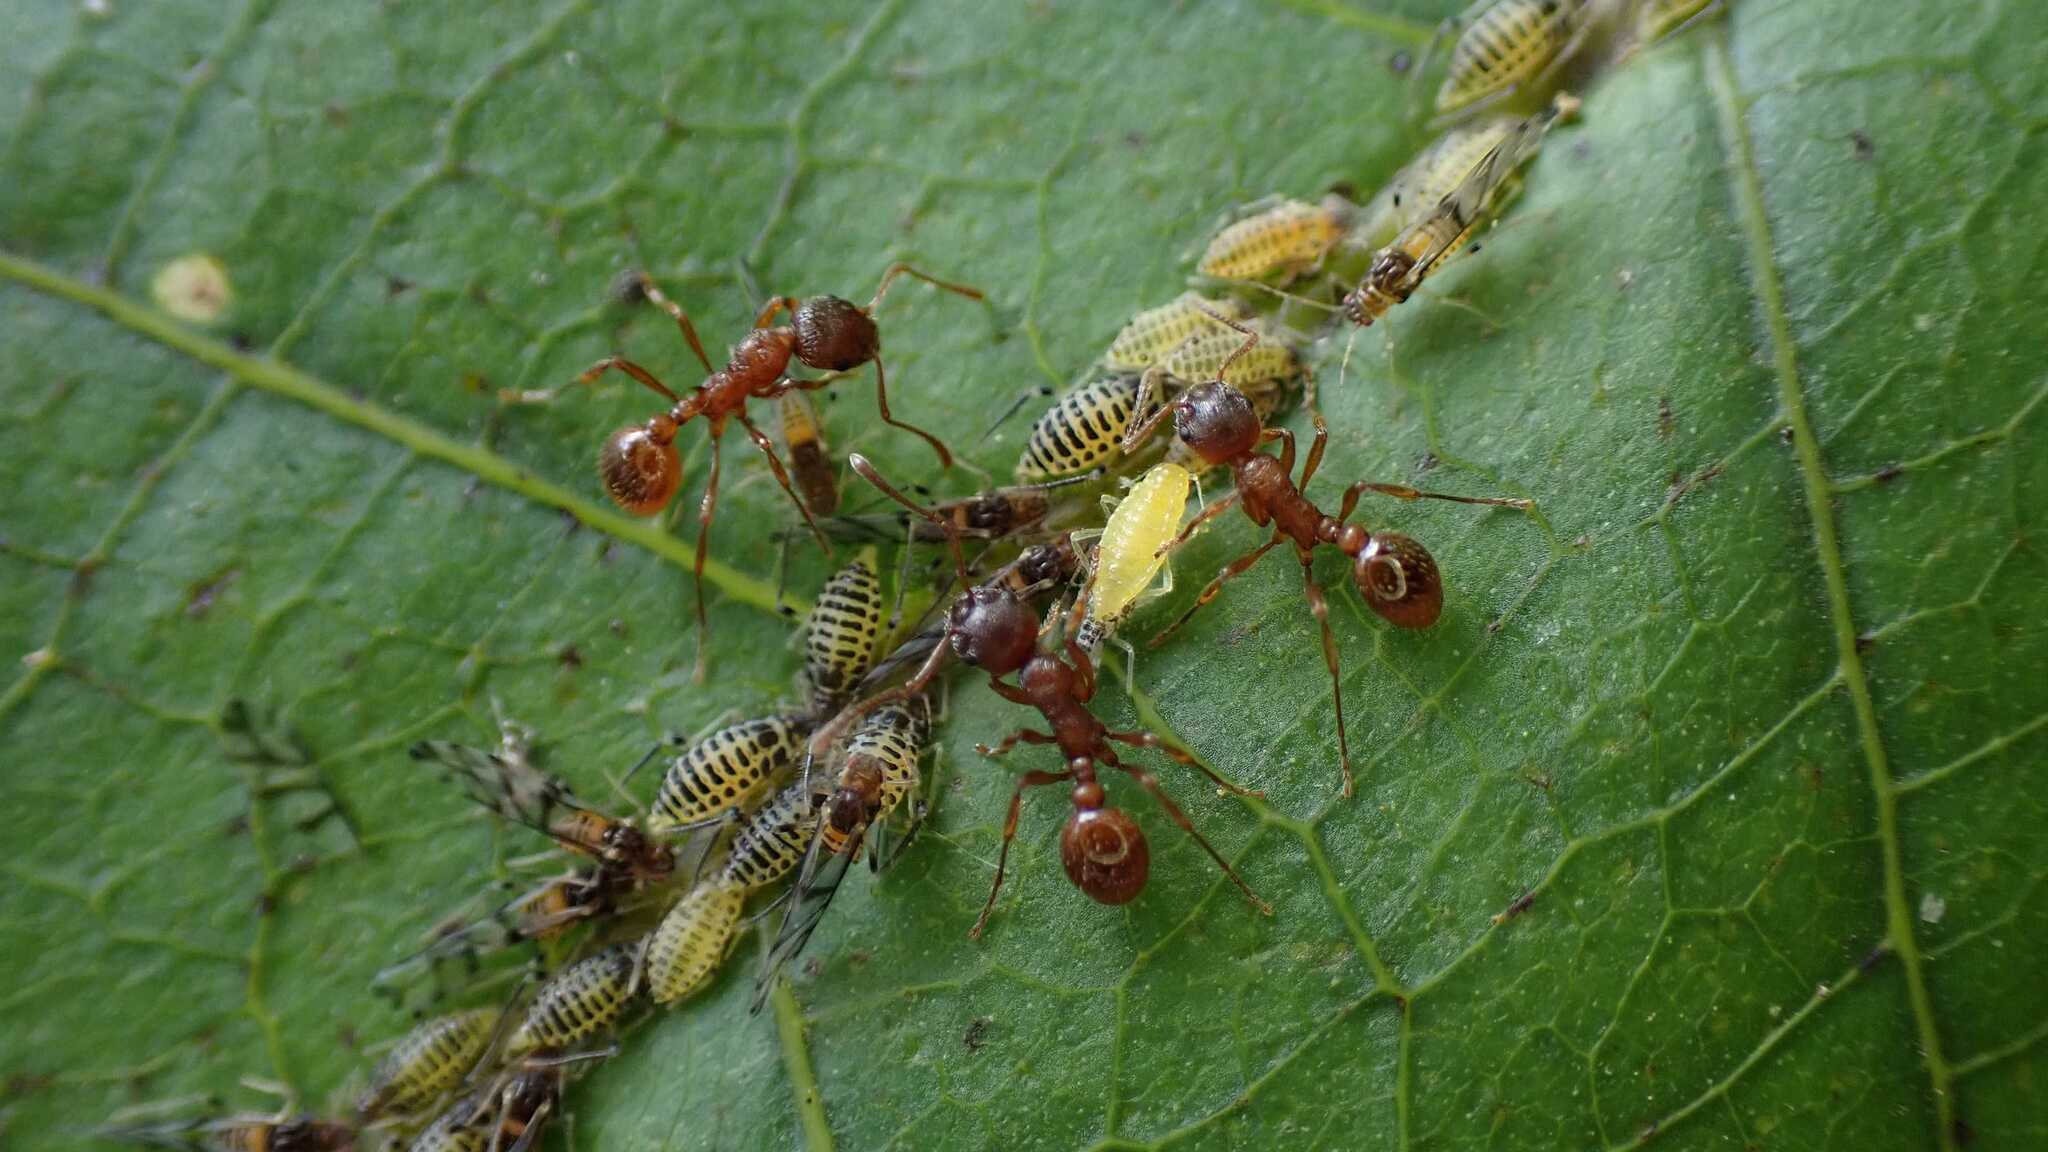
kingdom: Animalia
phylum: Arthropoda
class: Insecta
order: Hemiptera
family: Aphididae
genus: Panaphis
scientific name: Panaphis juglandis
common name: Large walnut aphid
